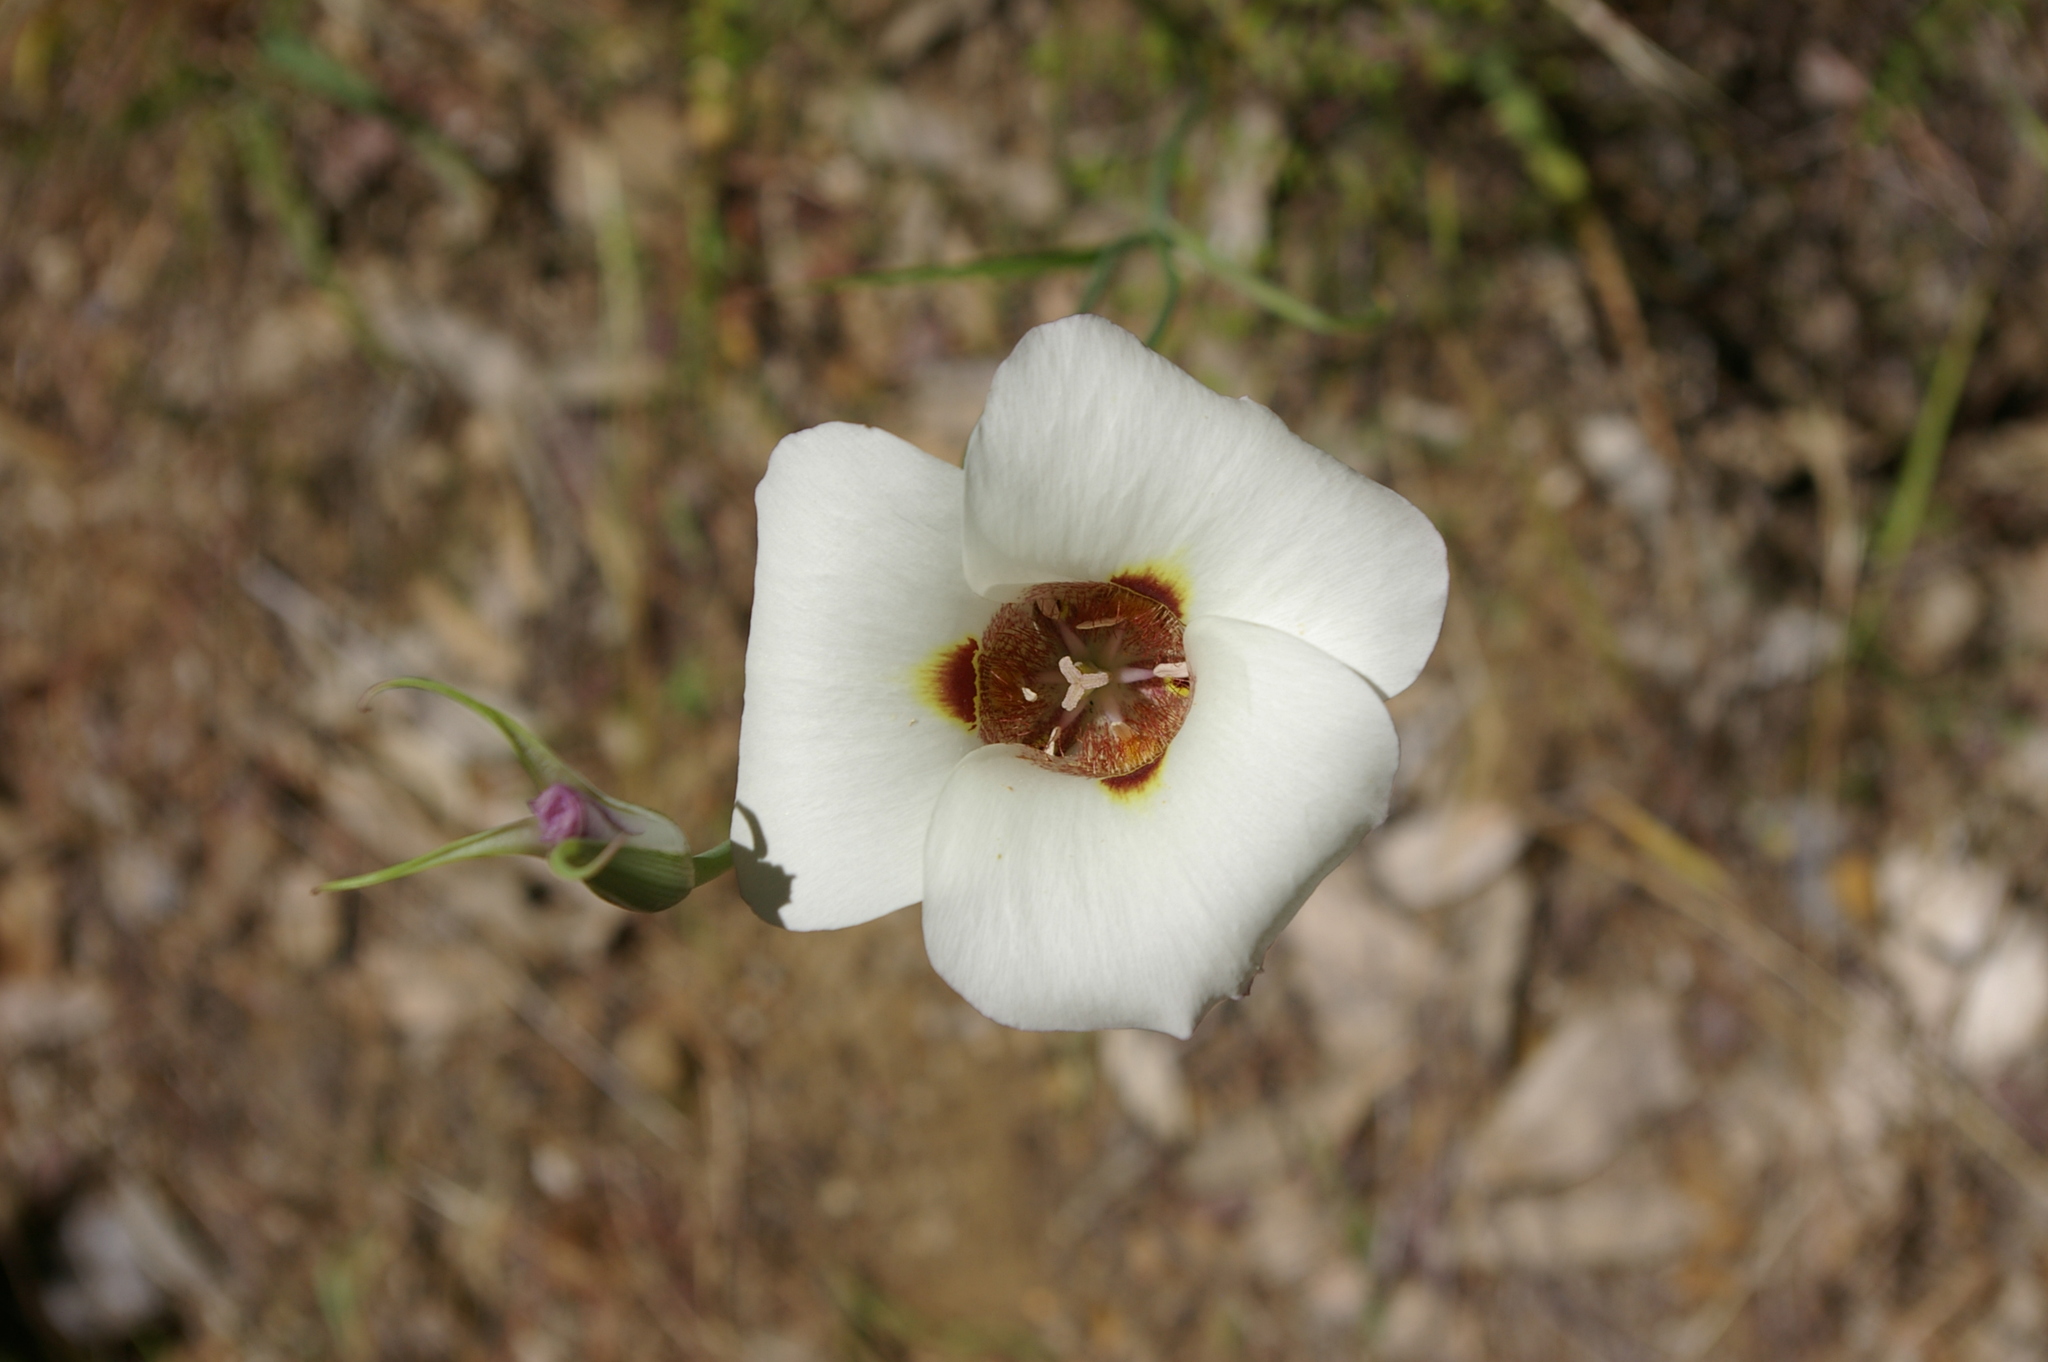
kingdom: Plantae
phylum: Tracheophyta
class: Liliopsida
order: Liliales
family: Liliaceae
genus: Calochortus
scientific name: Calochortus venustus
